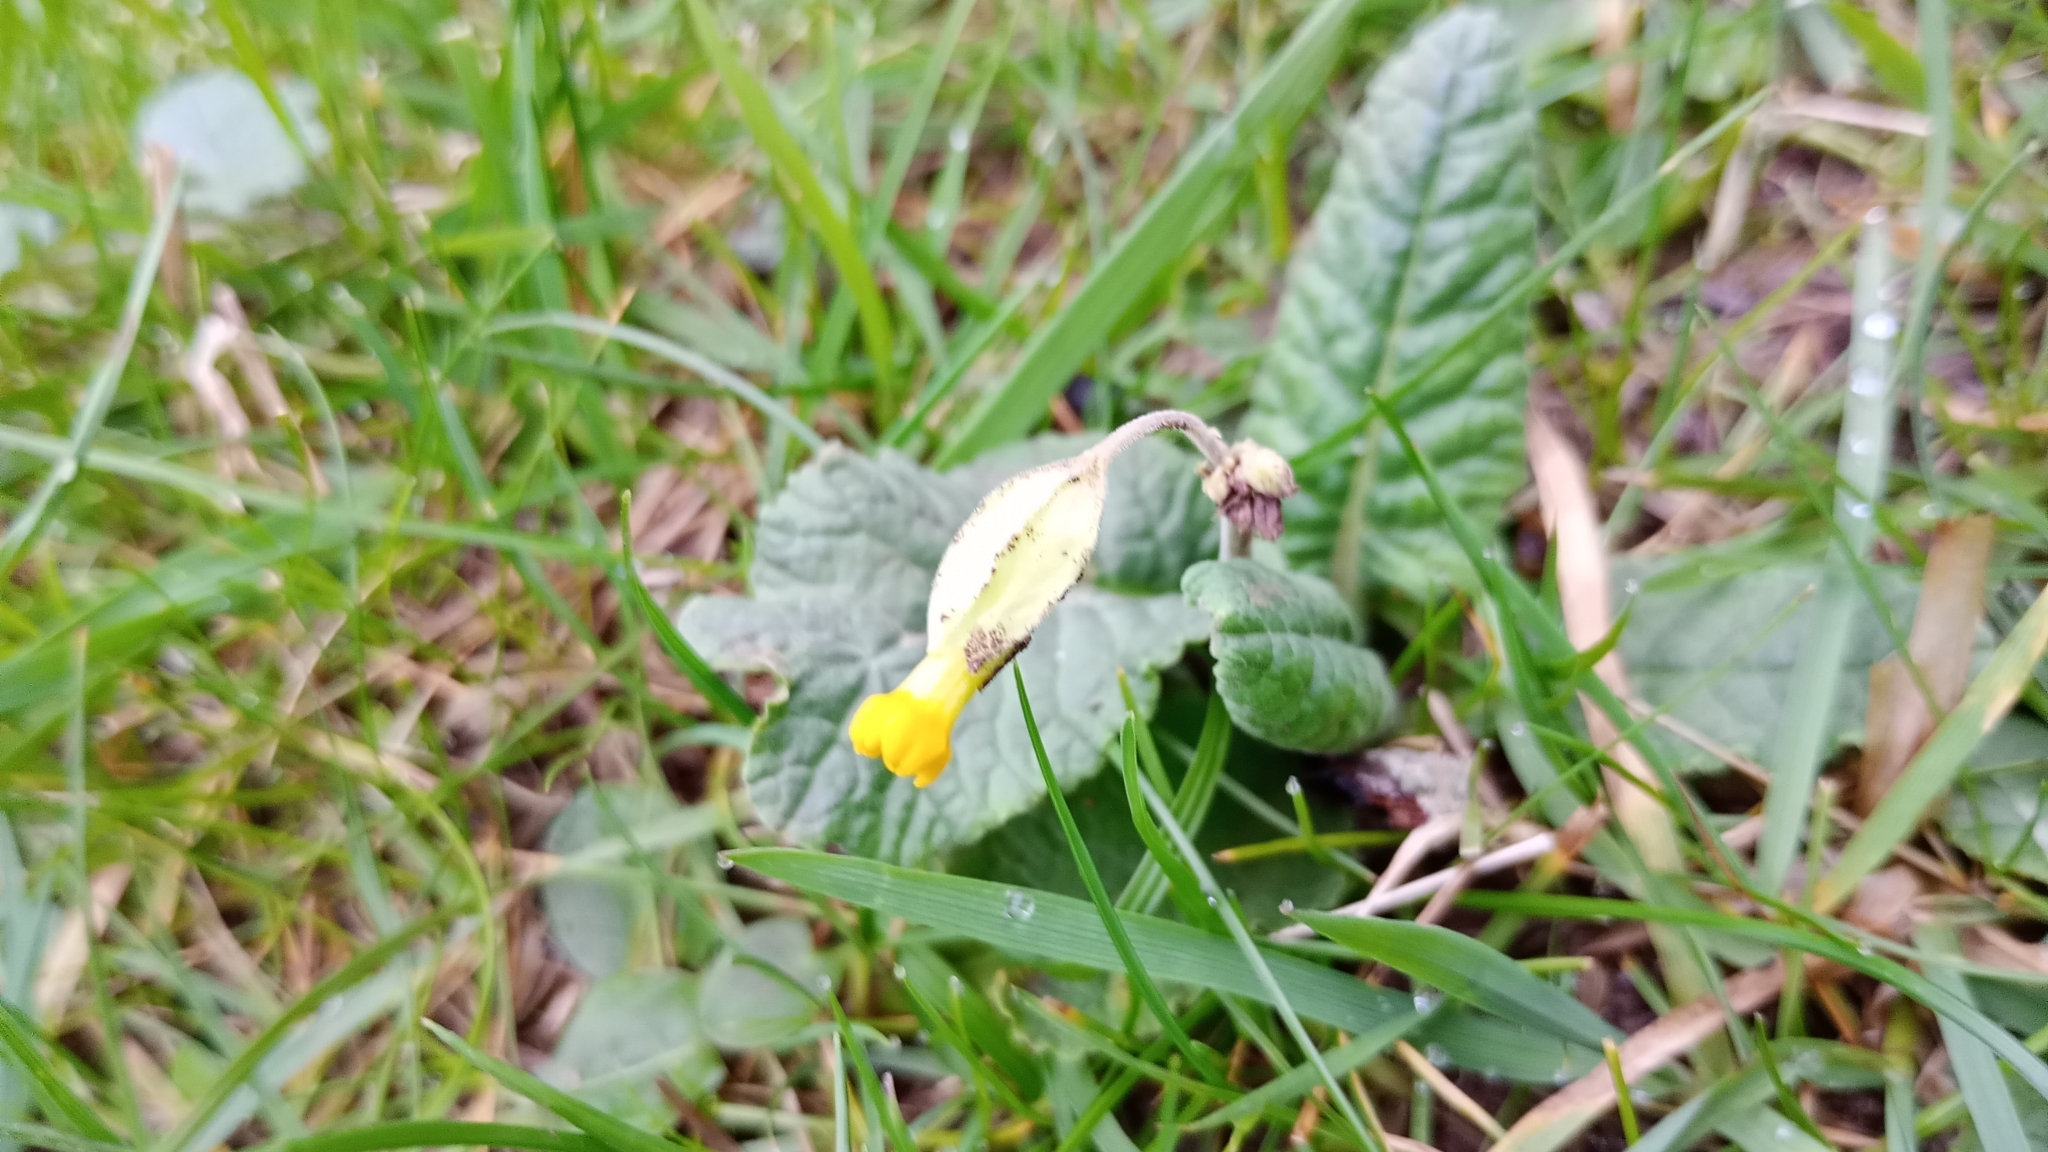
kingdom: Plantae
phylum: Tracheophyta
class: Magnoliopsida
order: Ericales
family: Primulaceae
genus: Primula
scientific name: Primula veris
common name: Cowslip
